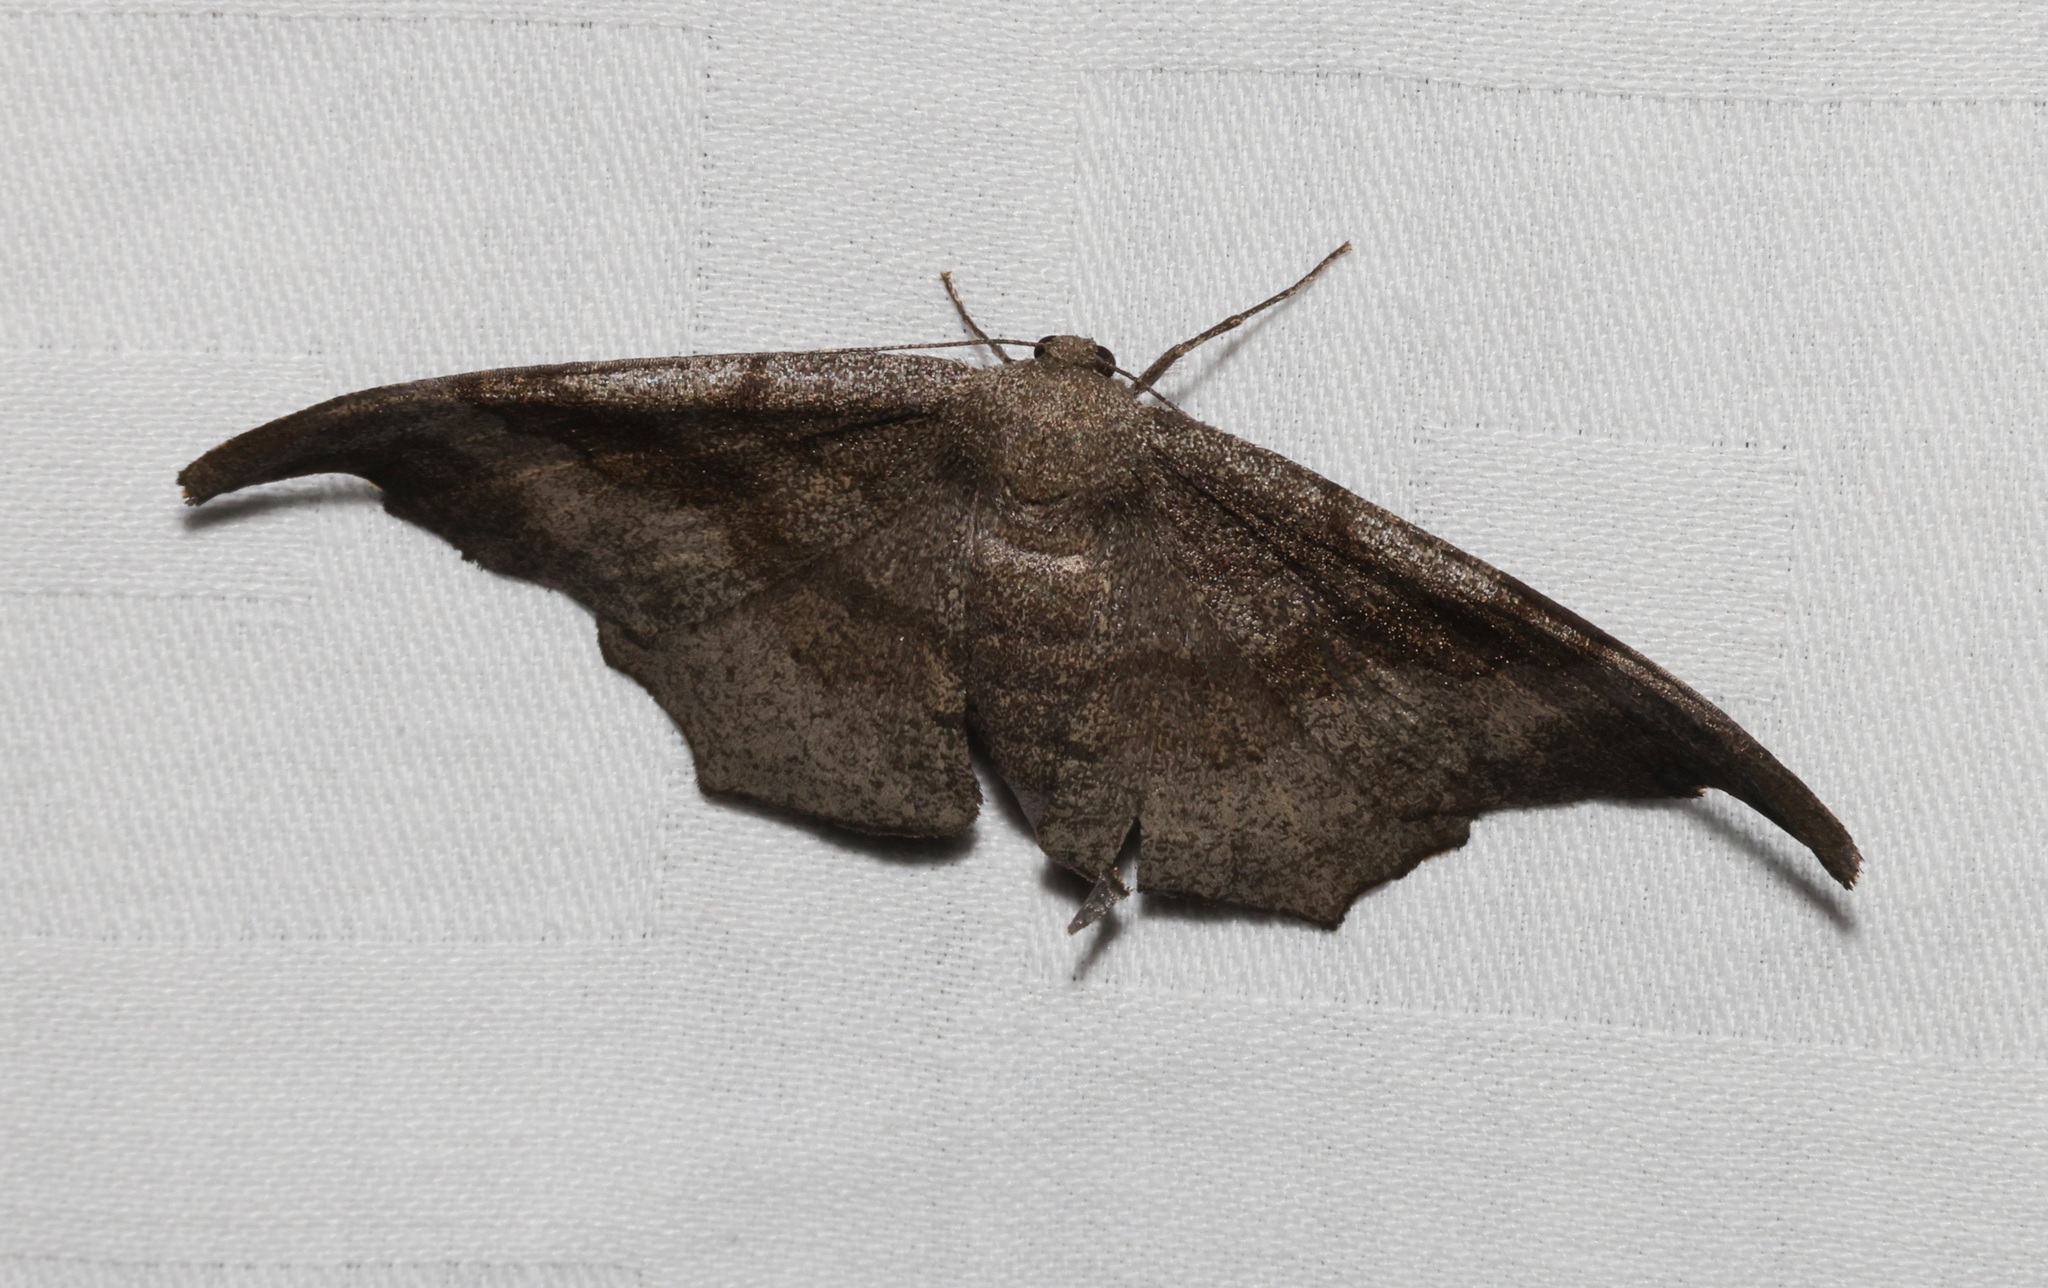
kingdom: Animalia
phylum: Arthropoda
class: Insecta
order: Lepidoptera
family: Geometridae
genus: Hyposidra
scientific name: Hyposidra talaca
